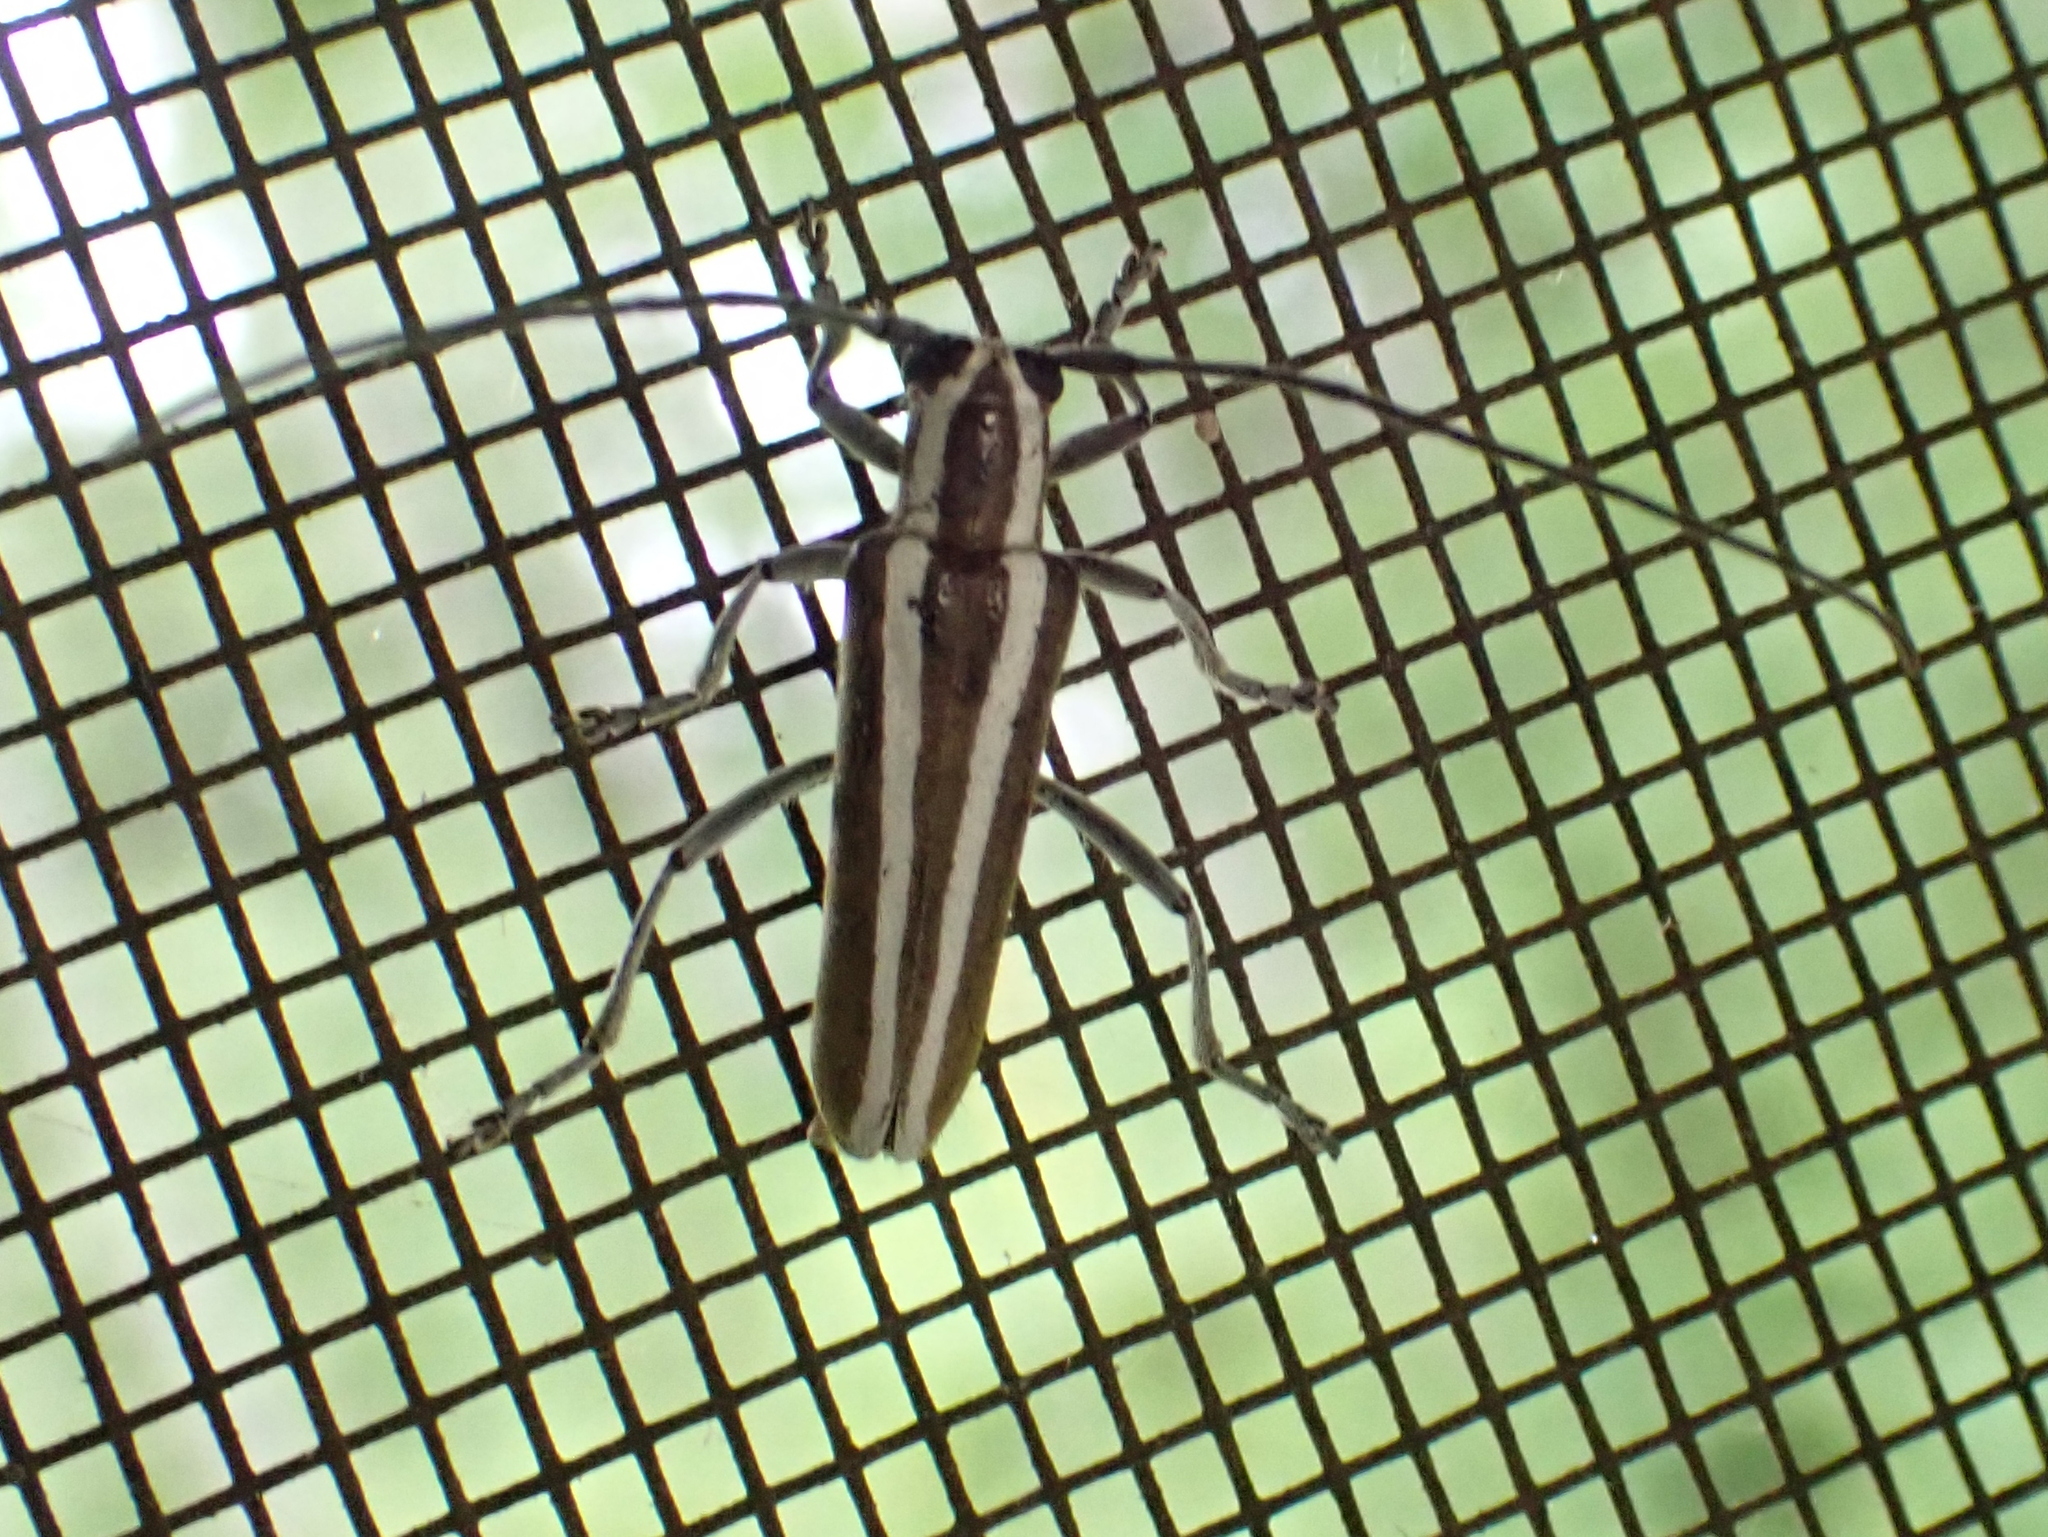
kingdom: Animalia
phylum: Arthropoda
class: Insecta
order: Coleoptera
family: Cerambycidae
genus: Saperda
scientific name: Saperda candida
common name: Round-headed borer
